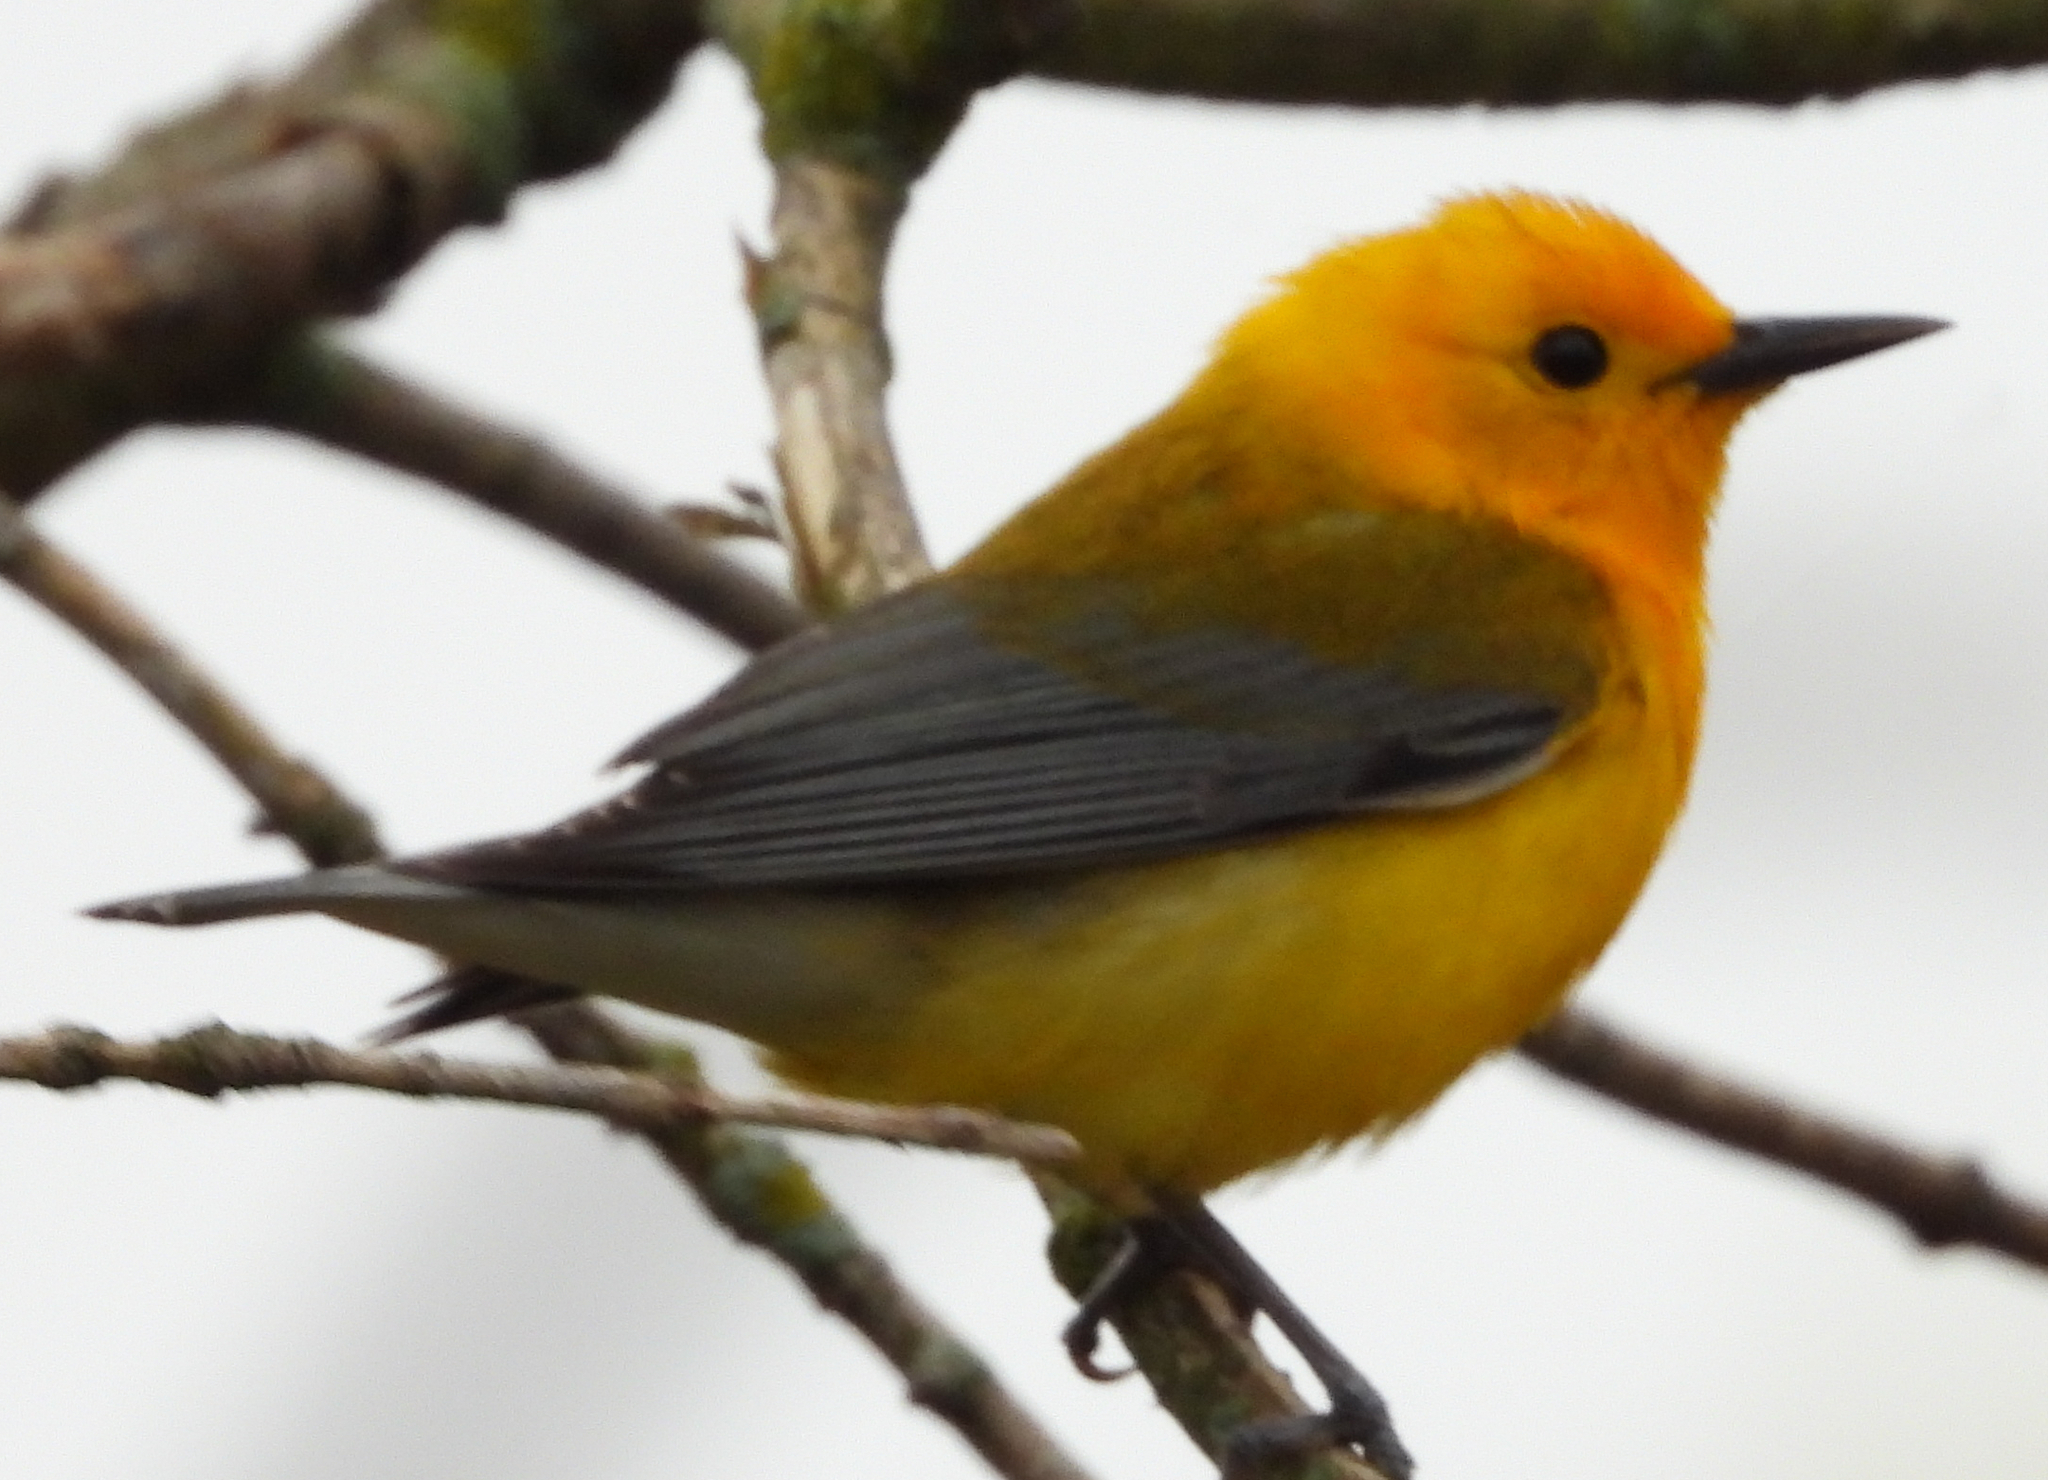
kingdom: Animalia
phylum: Chordata
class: Aves
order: Passeriformes
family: Parulidae
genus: Protonotaria
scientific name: Protonotaria citrea
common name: Prothonotary warbler
